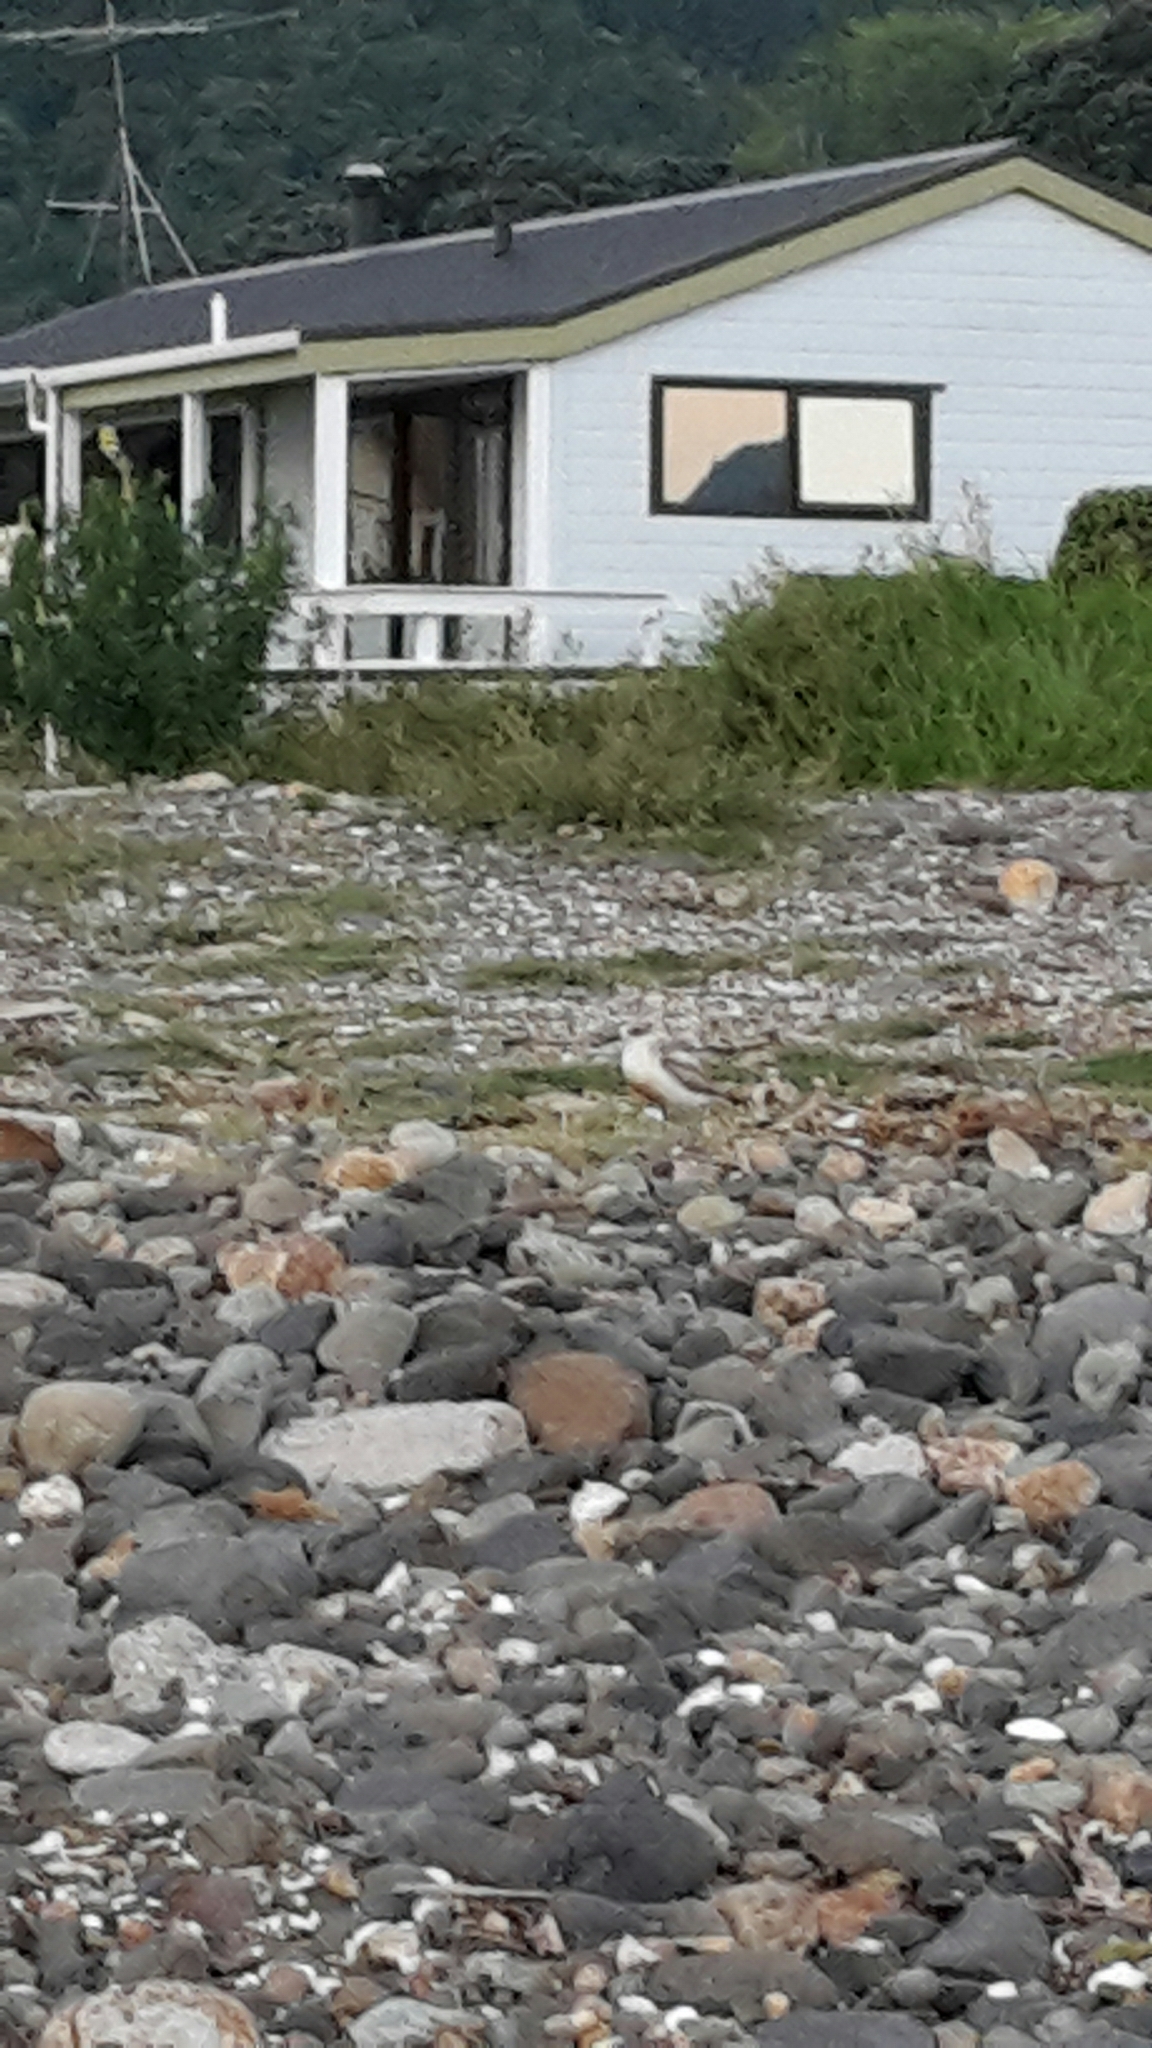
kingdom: Animalia
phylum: Chordata
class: Aves
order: Charadriiformes
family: Charadriidae
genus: Anarhynchus
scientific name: Anarhynchus
